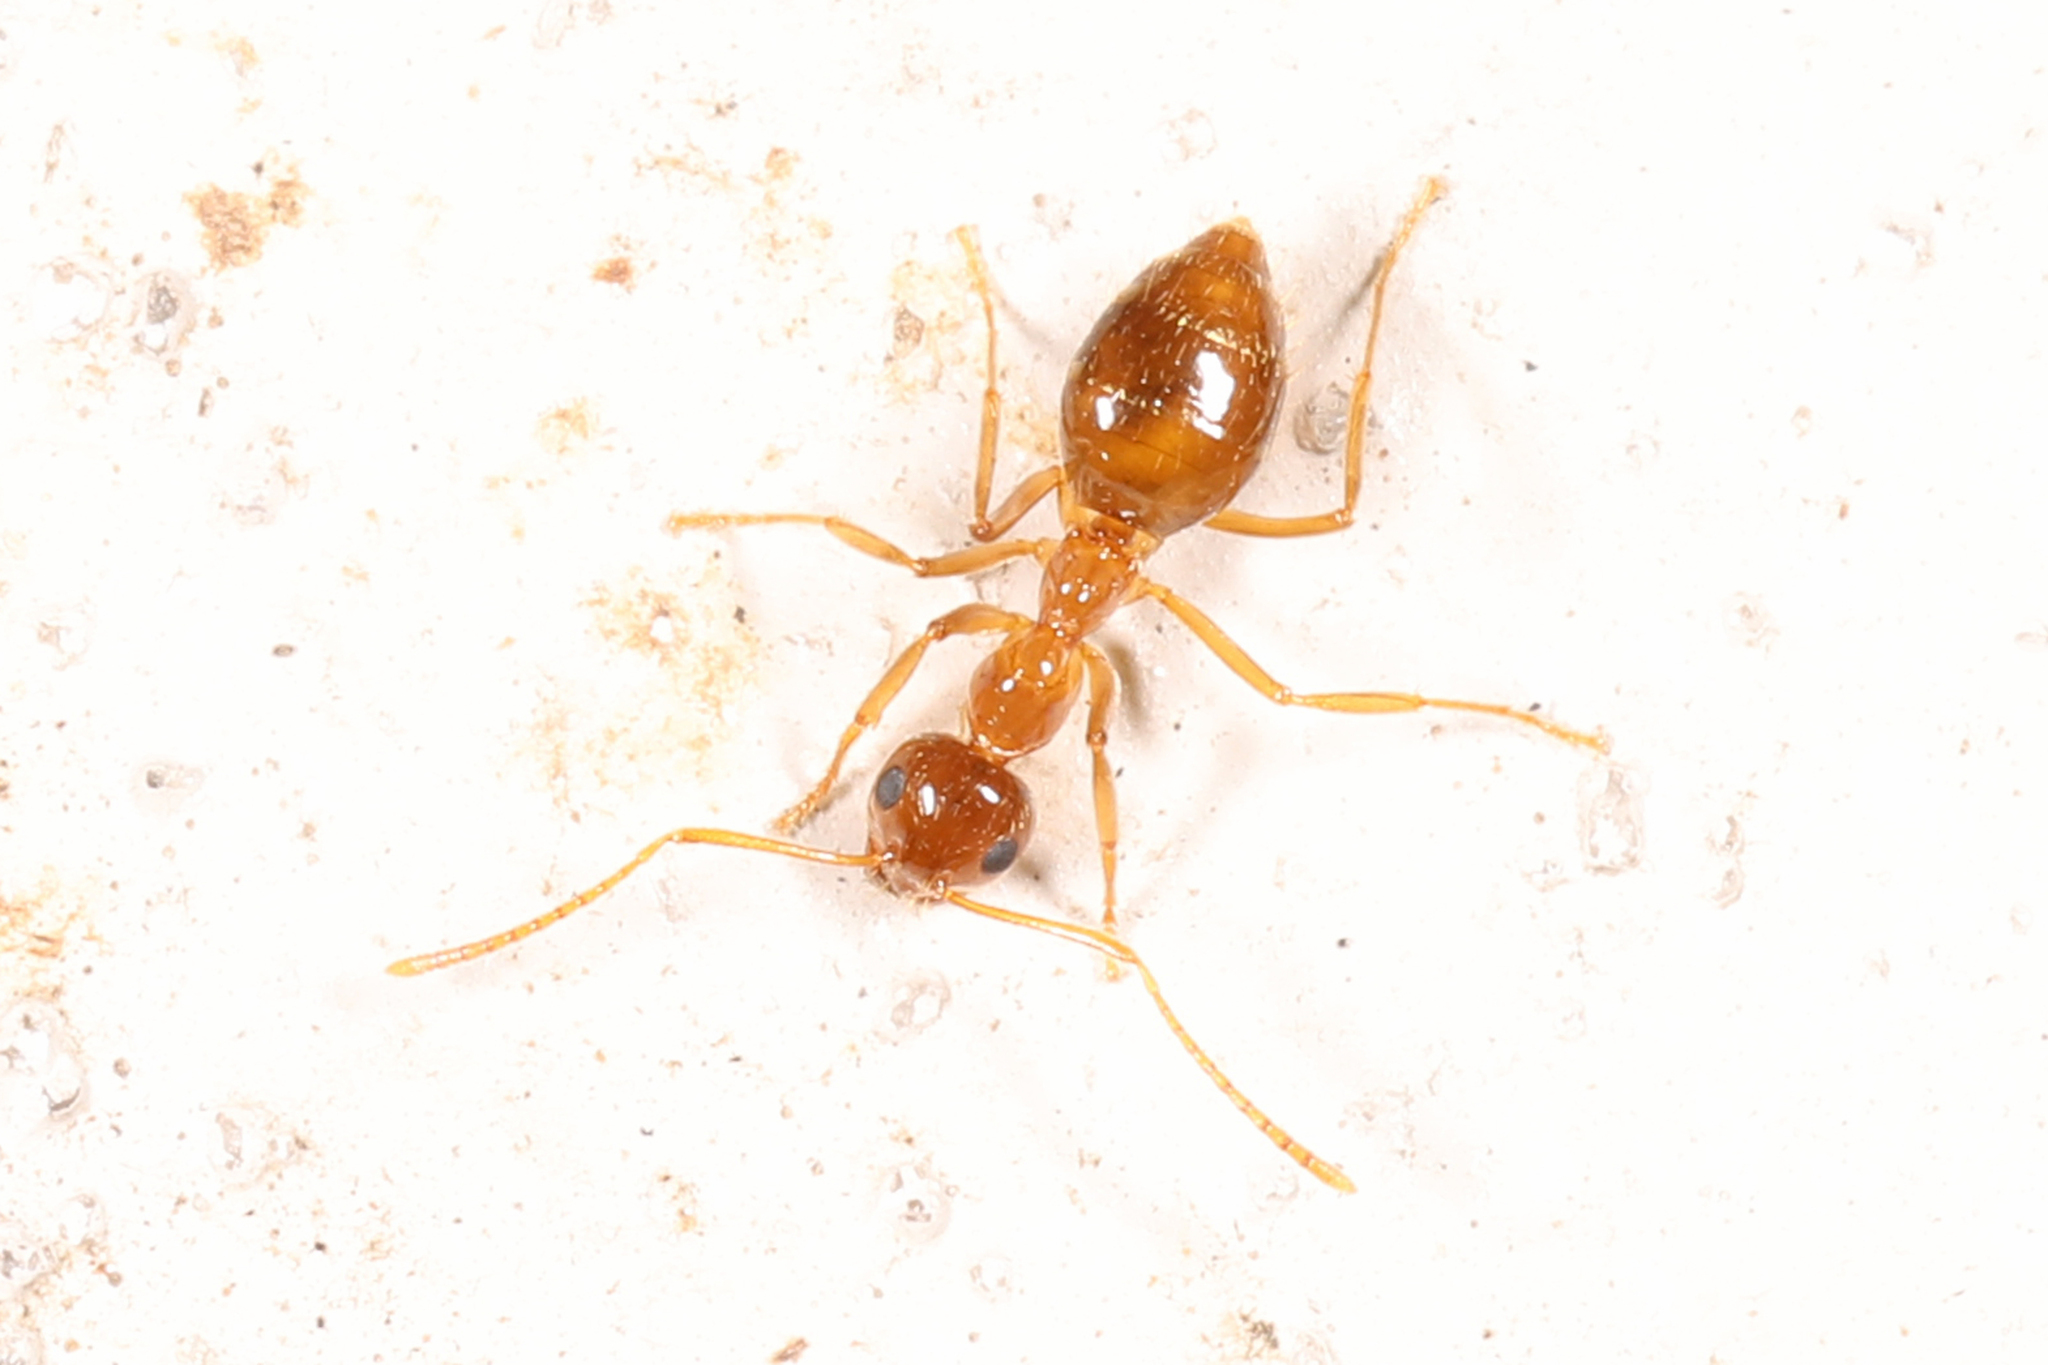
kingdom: Animalia
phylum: Arthropoda
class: Insecta
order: Hymenoptera
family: Formicidae
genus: Prenolepis
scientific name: Prenolepis imparis
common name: Small honey ant
